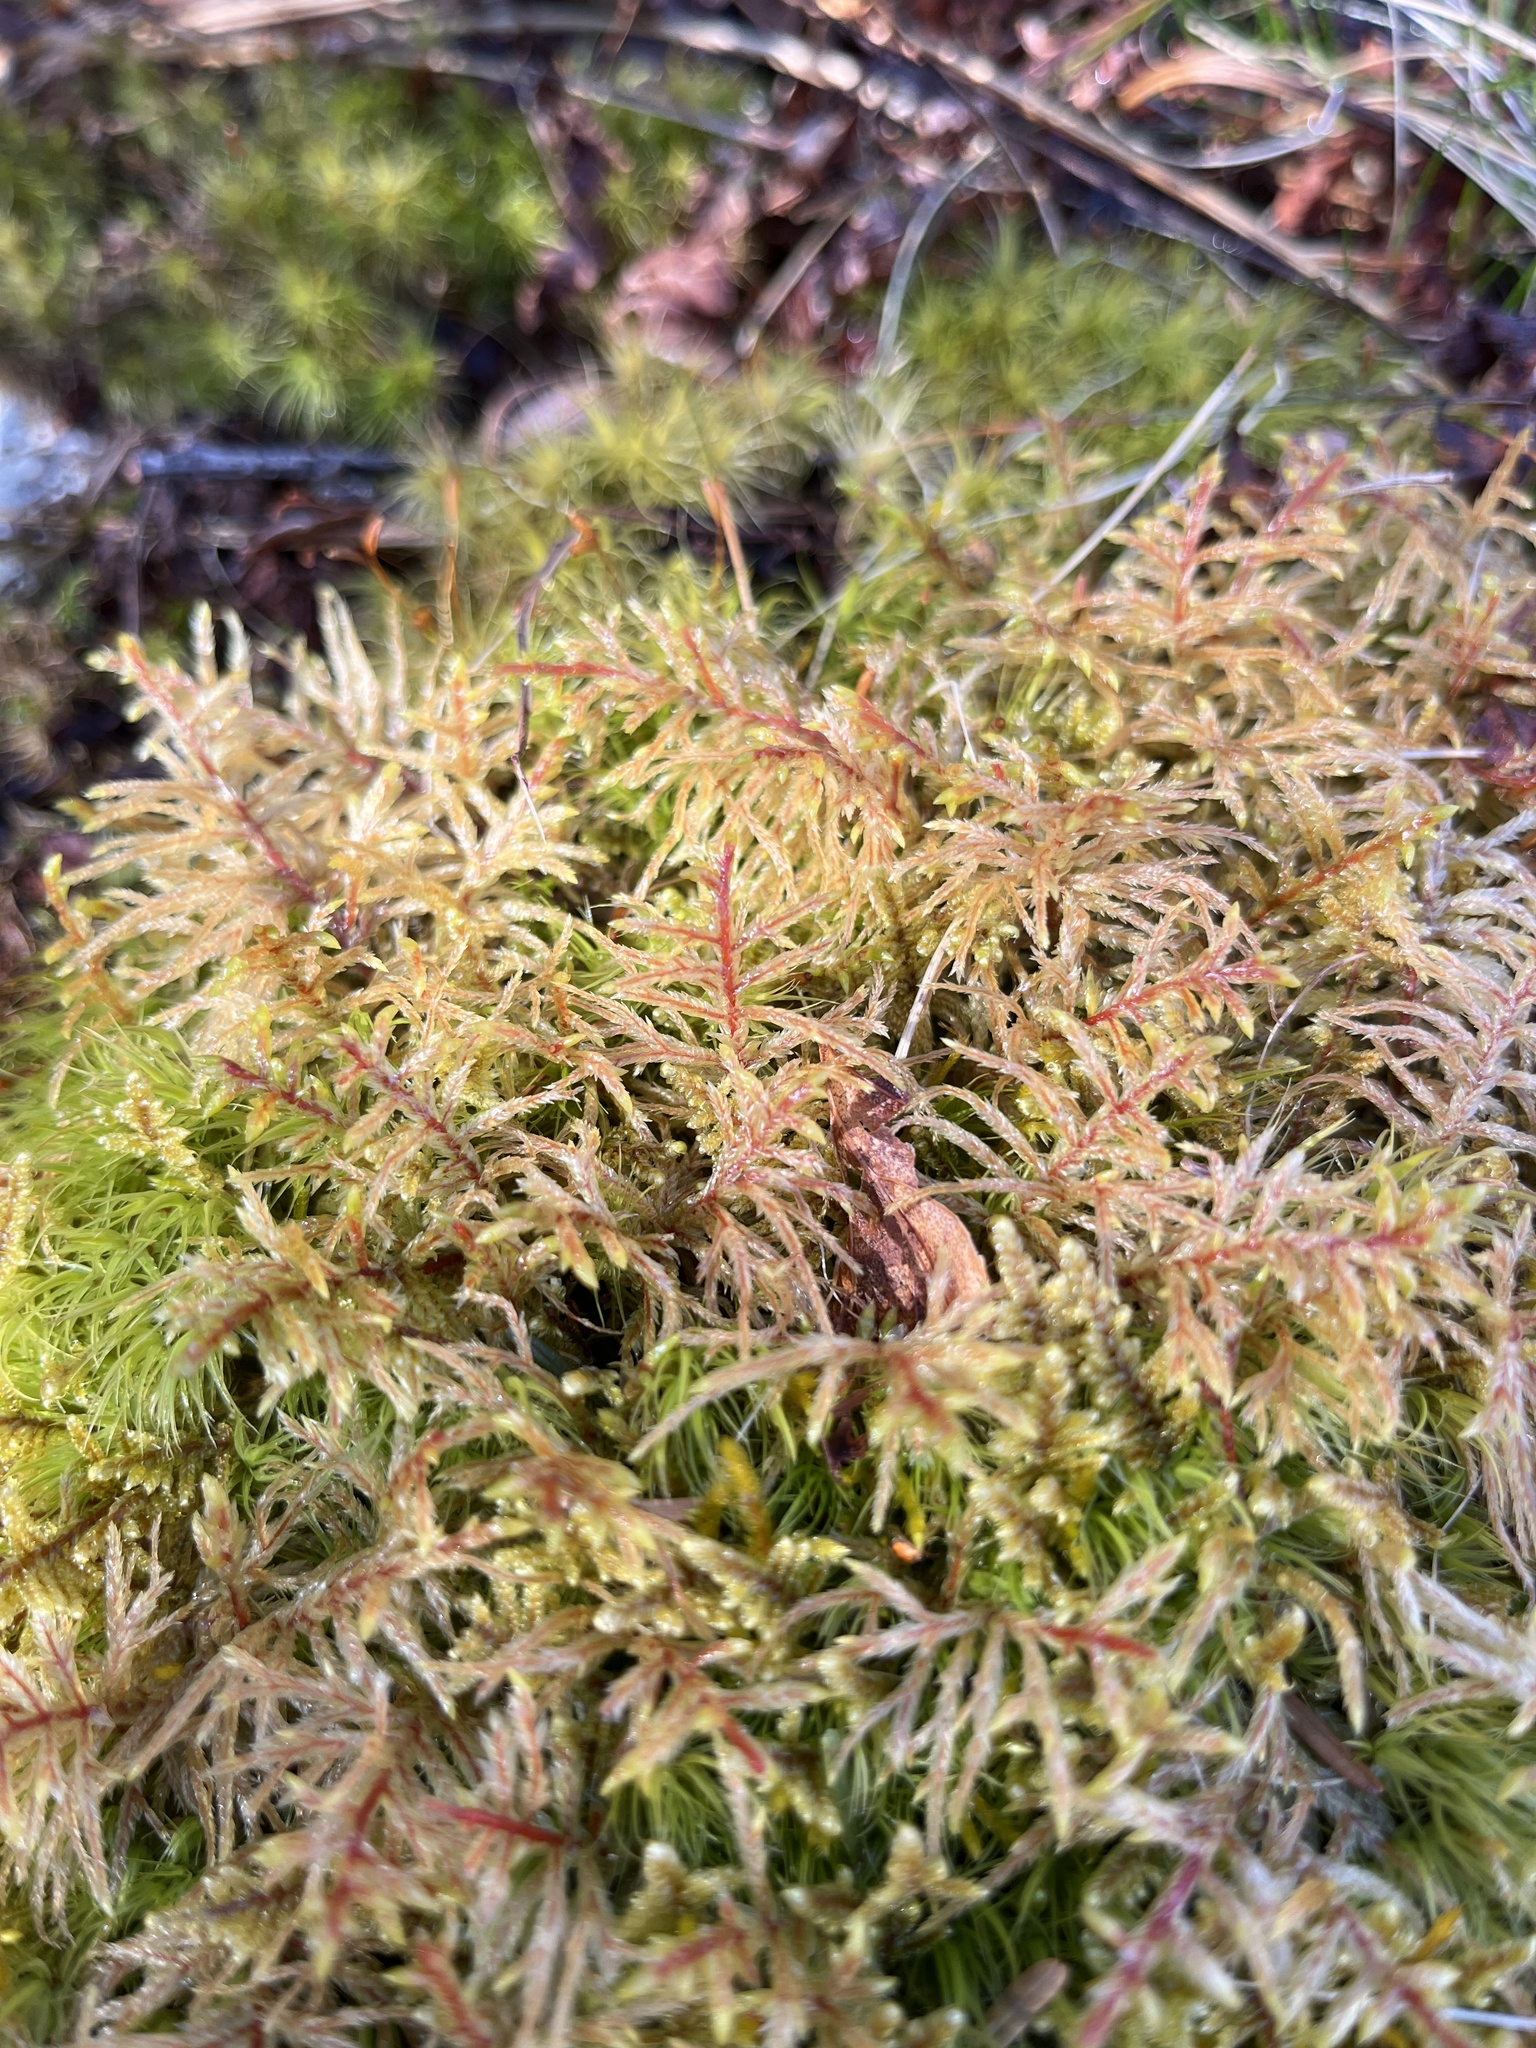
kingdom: Plantae
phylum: Bryophyta
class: Bryopsida
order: Hypnales
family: Hylocomiaceae
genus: Pleurozium
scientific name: Pleurozium schreberi
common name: Red-stemmed feather moss
